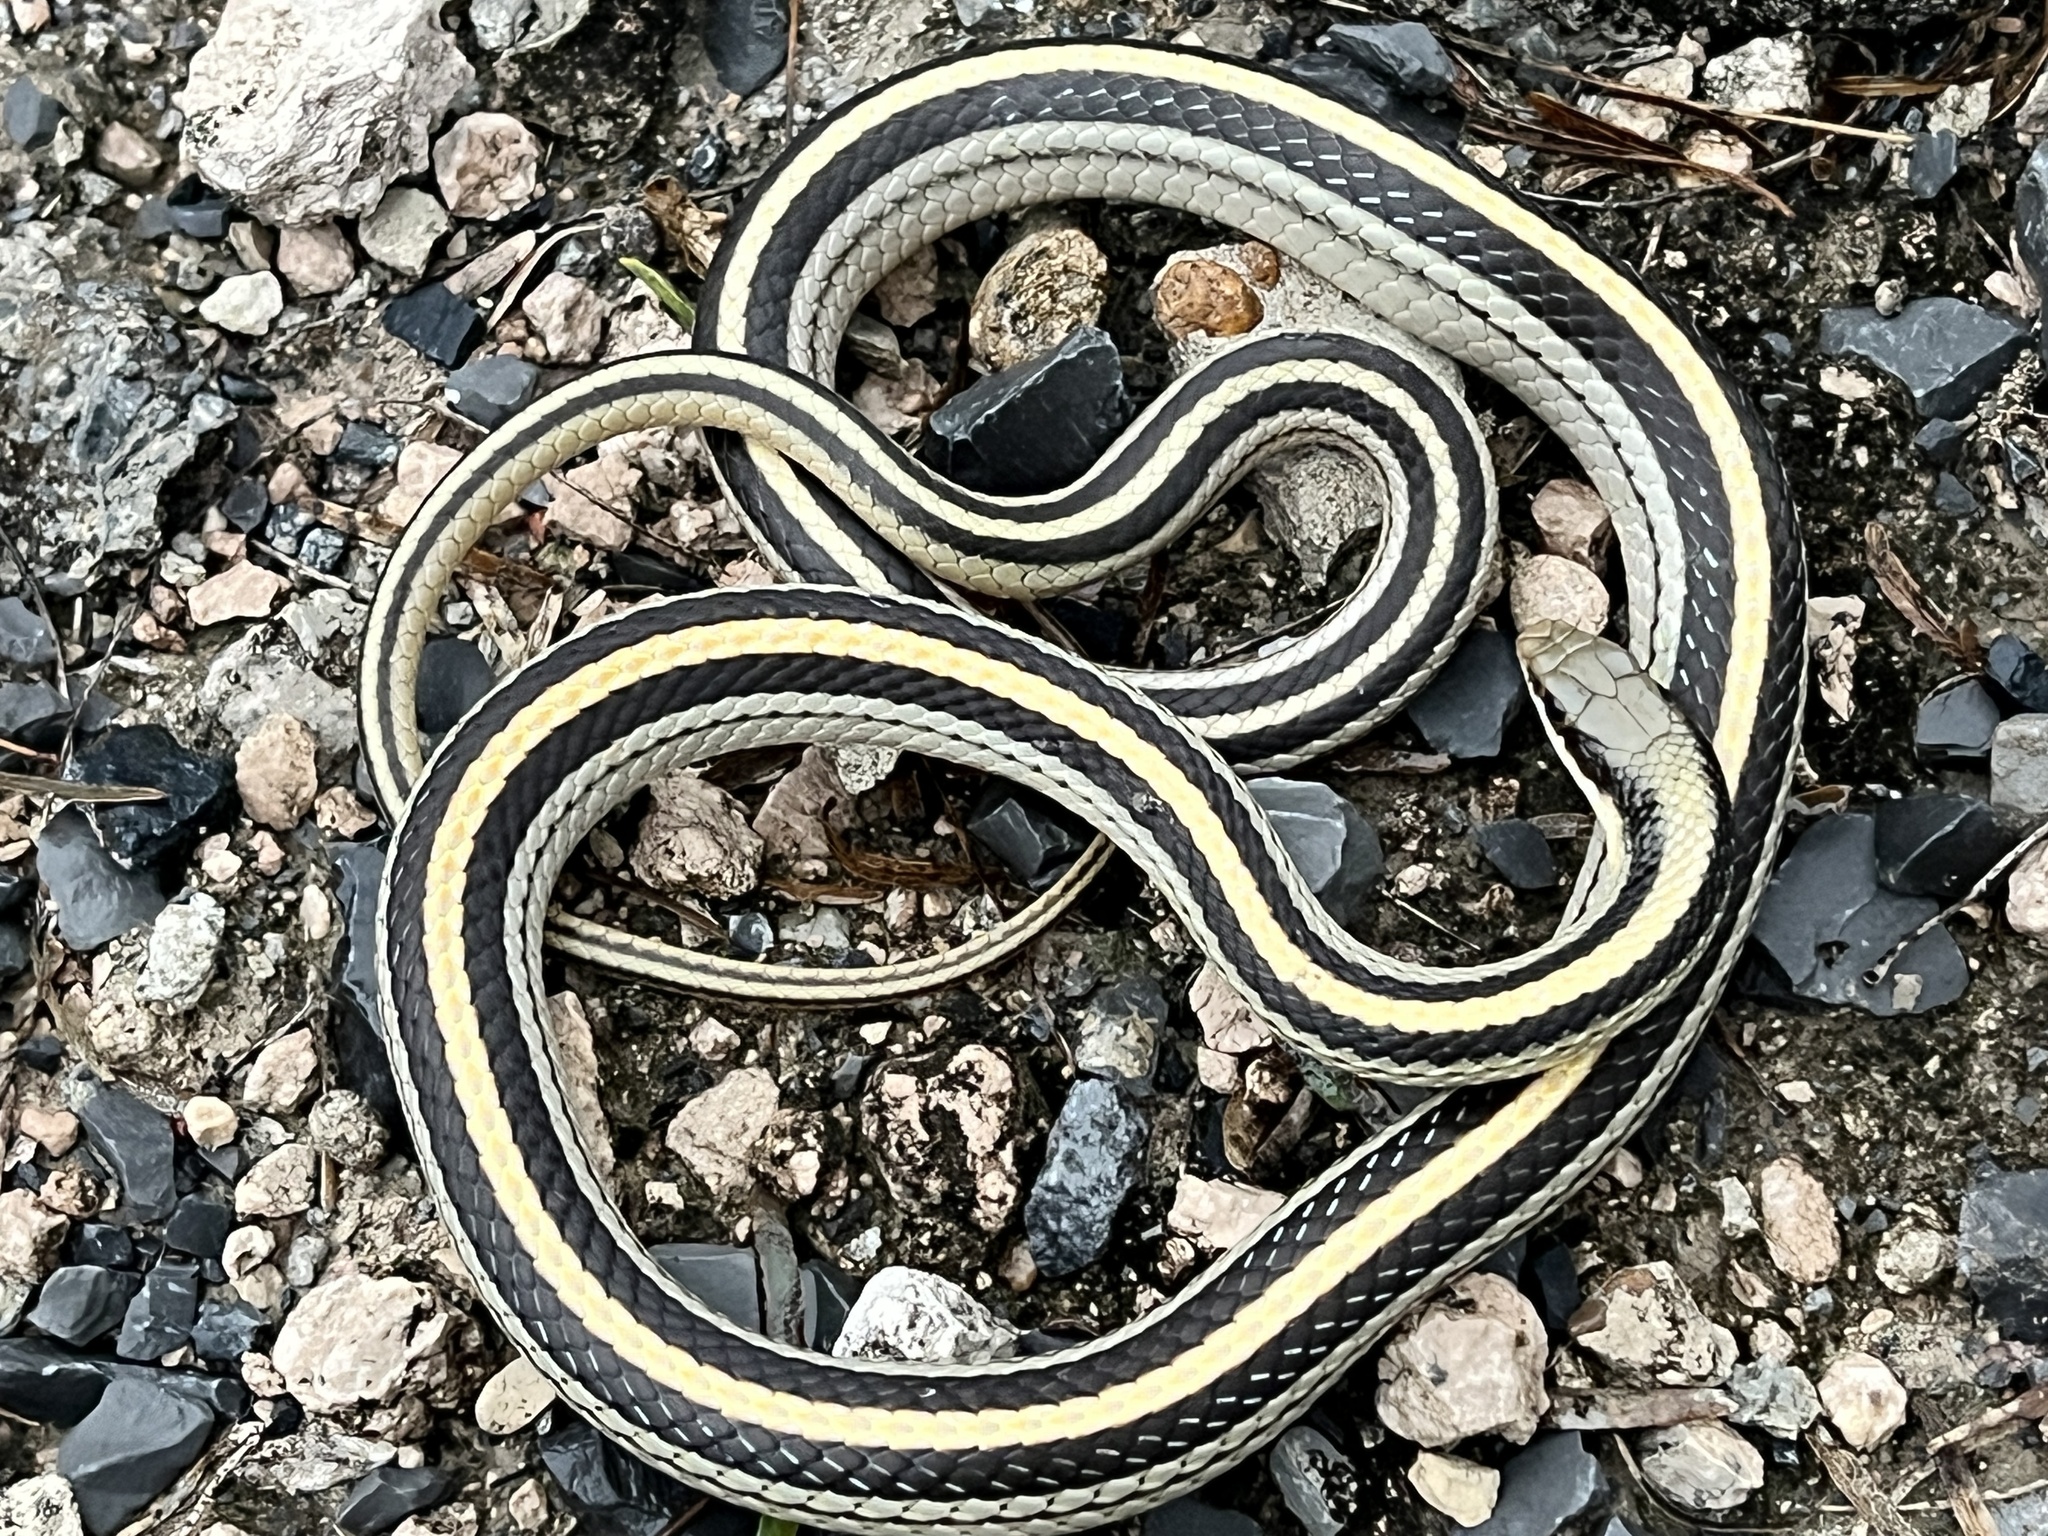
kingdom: Animalia
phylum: Chordata
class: Squamata
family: Colubridae
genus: Salvadora
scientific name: Salvadora lineata
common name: Texas patchnose snake
